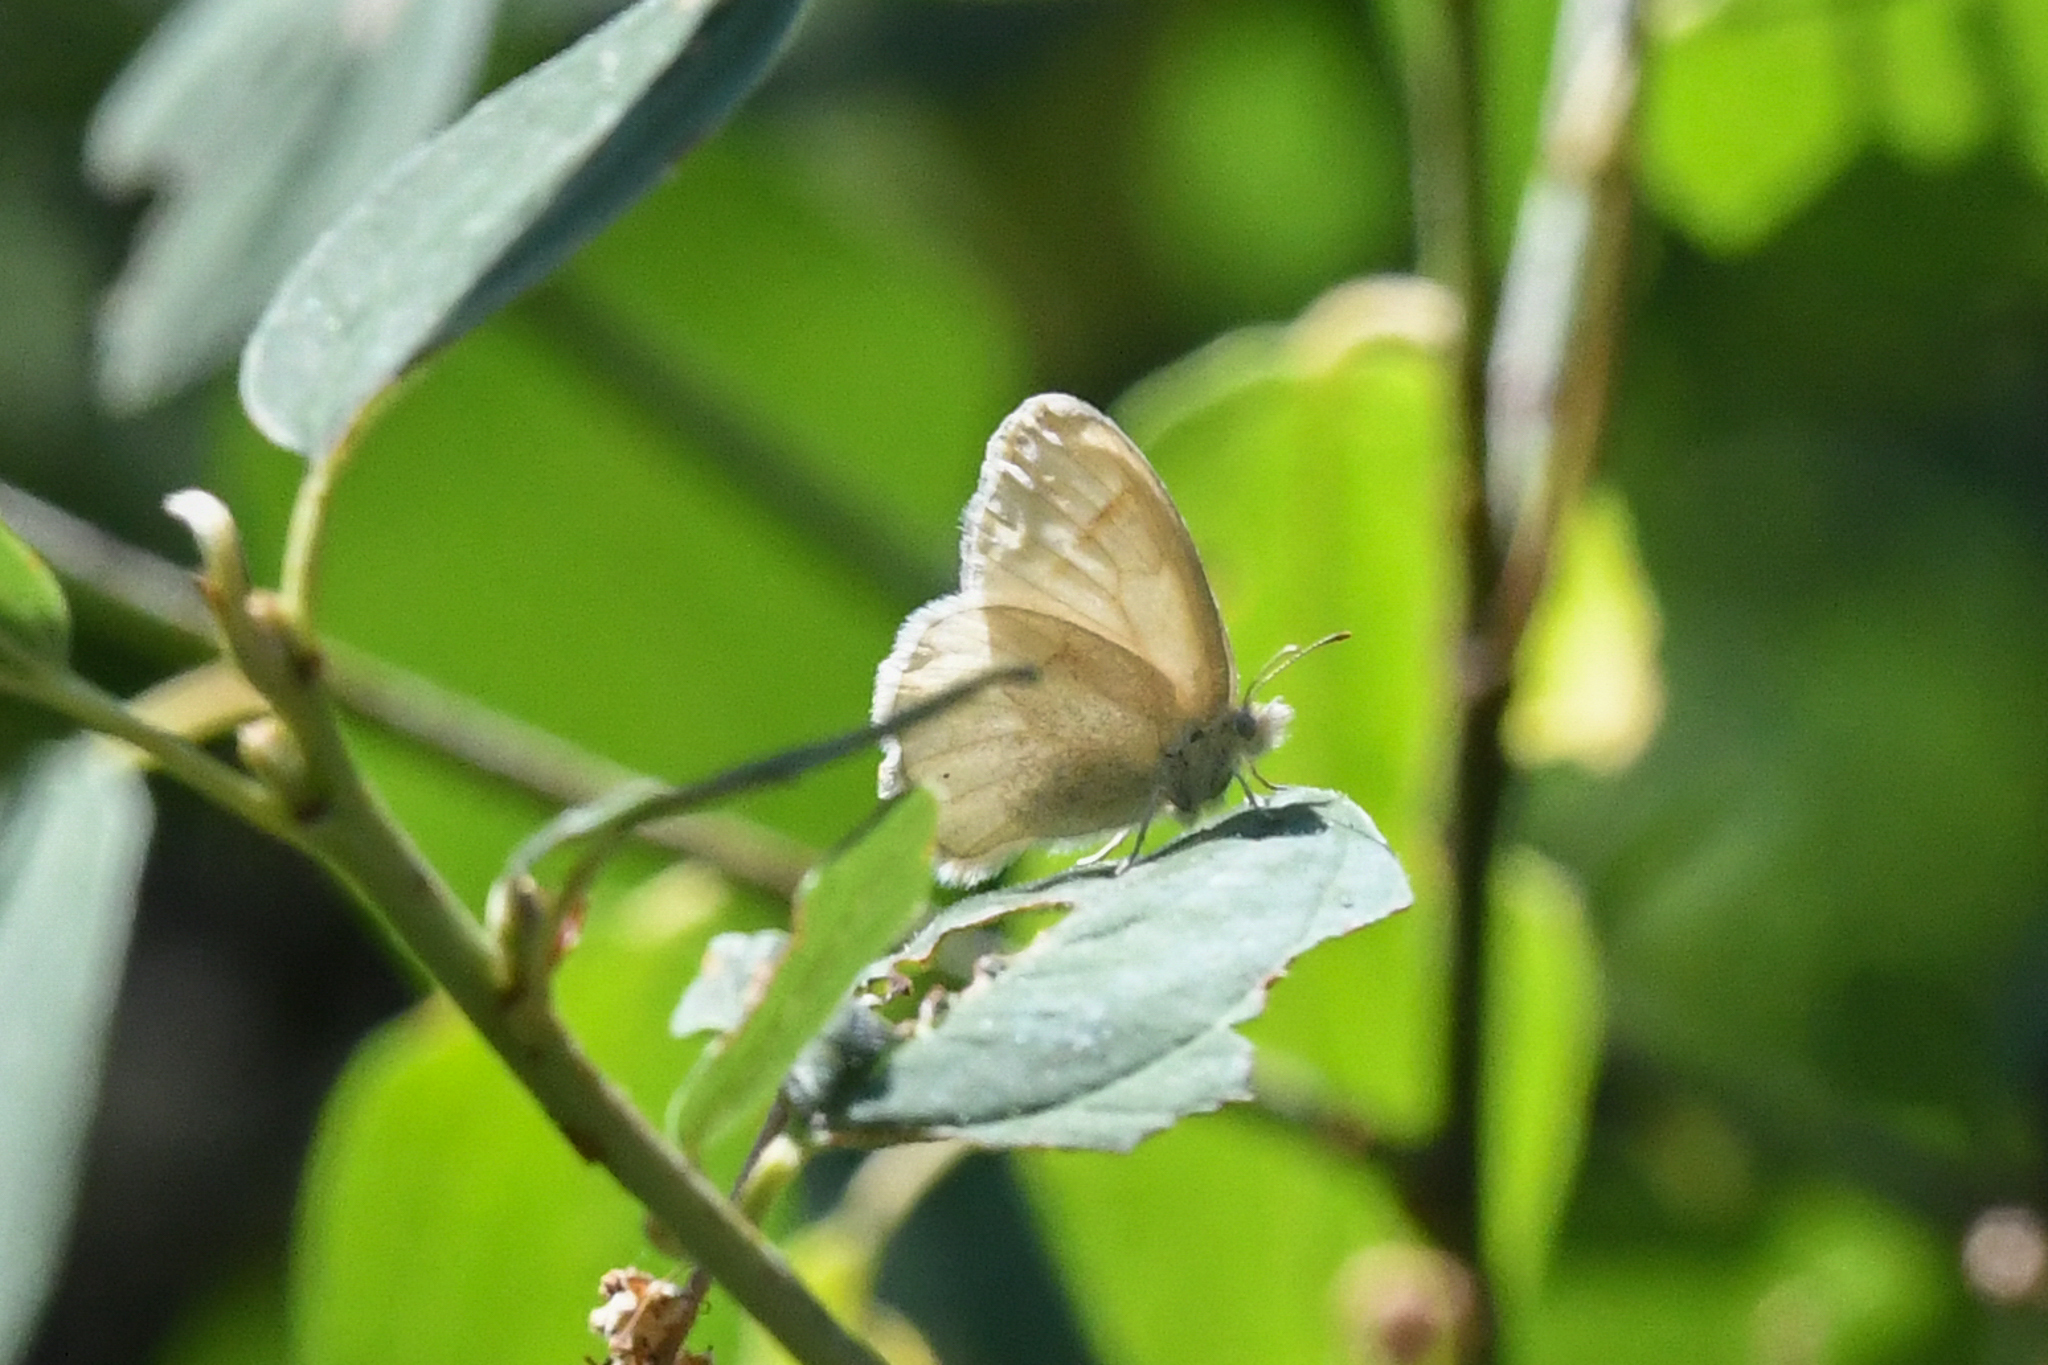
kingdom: Animalia
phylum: Arthropoda
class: Insecta
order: Lepidoptera
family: Nymphalidae
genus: Coenonympha
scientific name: Coenonympha california
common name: Common ringlet
